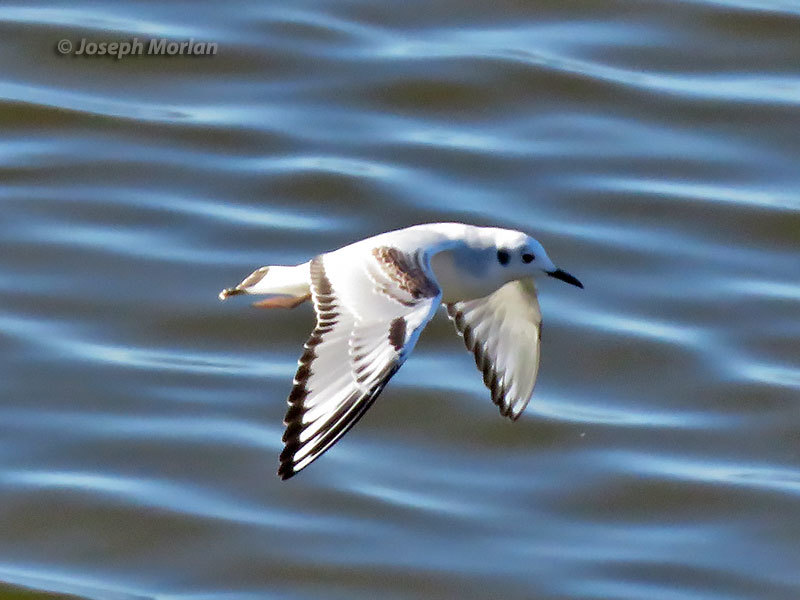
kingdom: Animalia
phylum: Chordata
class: Aves
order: Charadriiformes
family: Laridae
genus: Chroicocephalus
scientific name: Chroicocephalus philadelphia
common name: Bonaparte's gull
